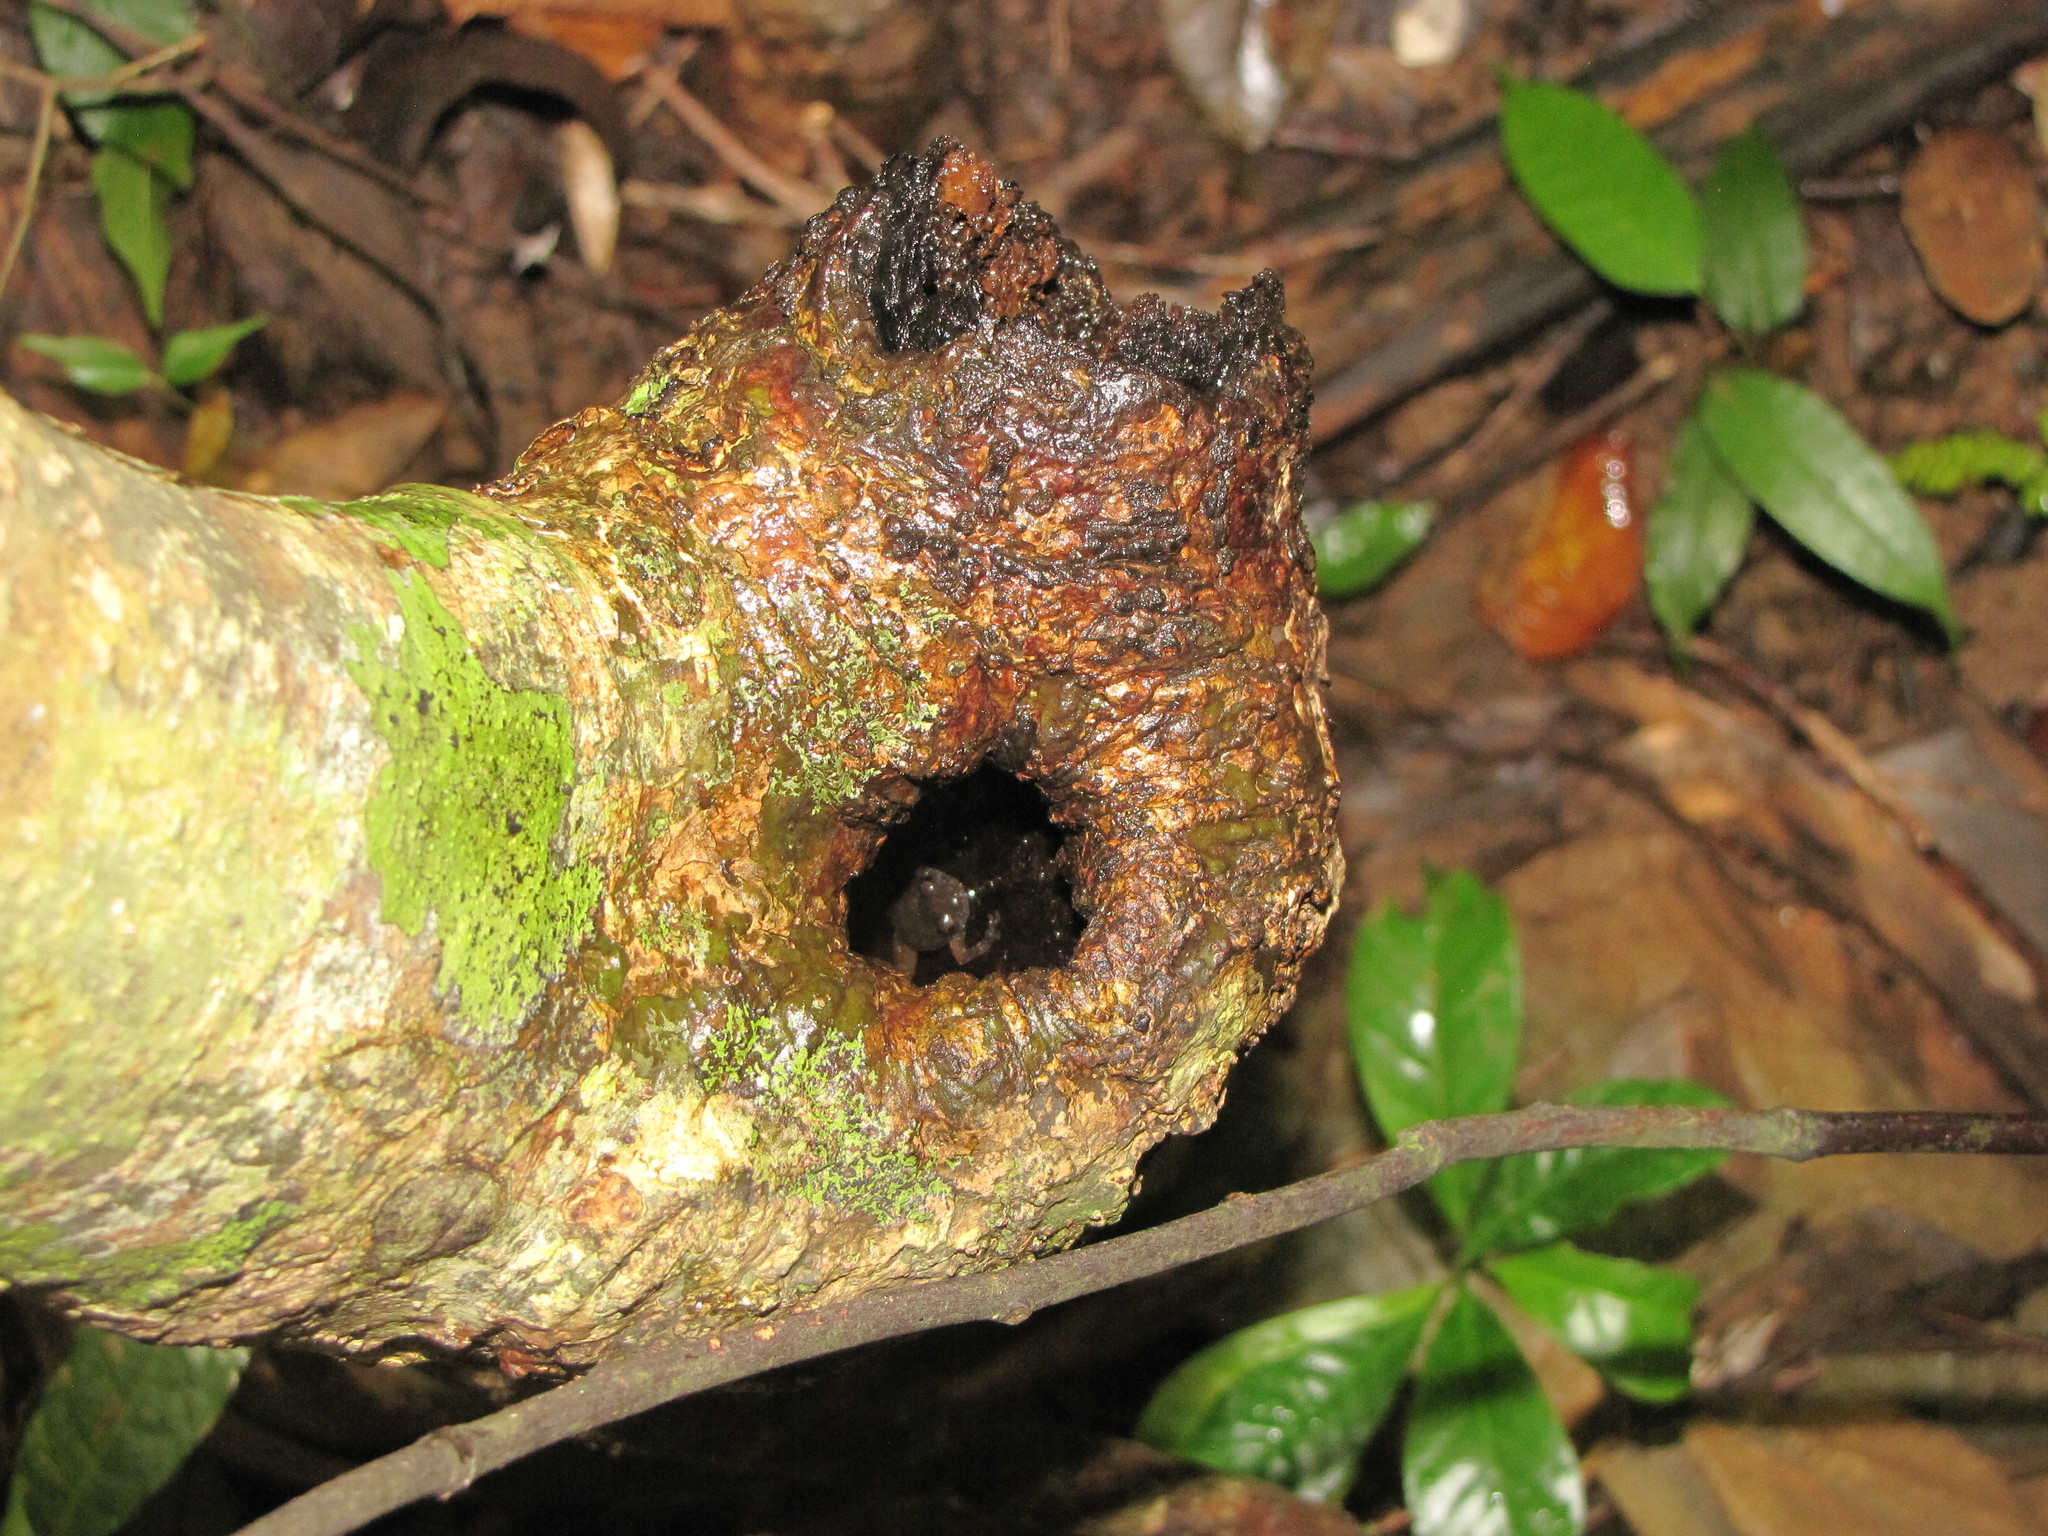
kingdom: Animalia
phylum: Chordata
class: Amphibia
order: Anura
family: Microhylidae
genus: Cophyla
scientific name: Cophyla occultans
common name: Island giant treefrog
